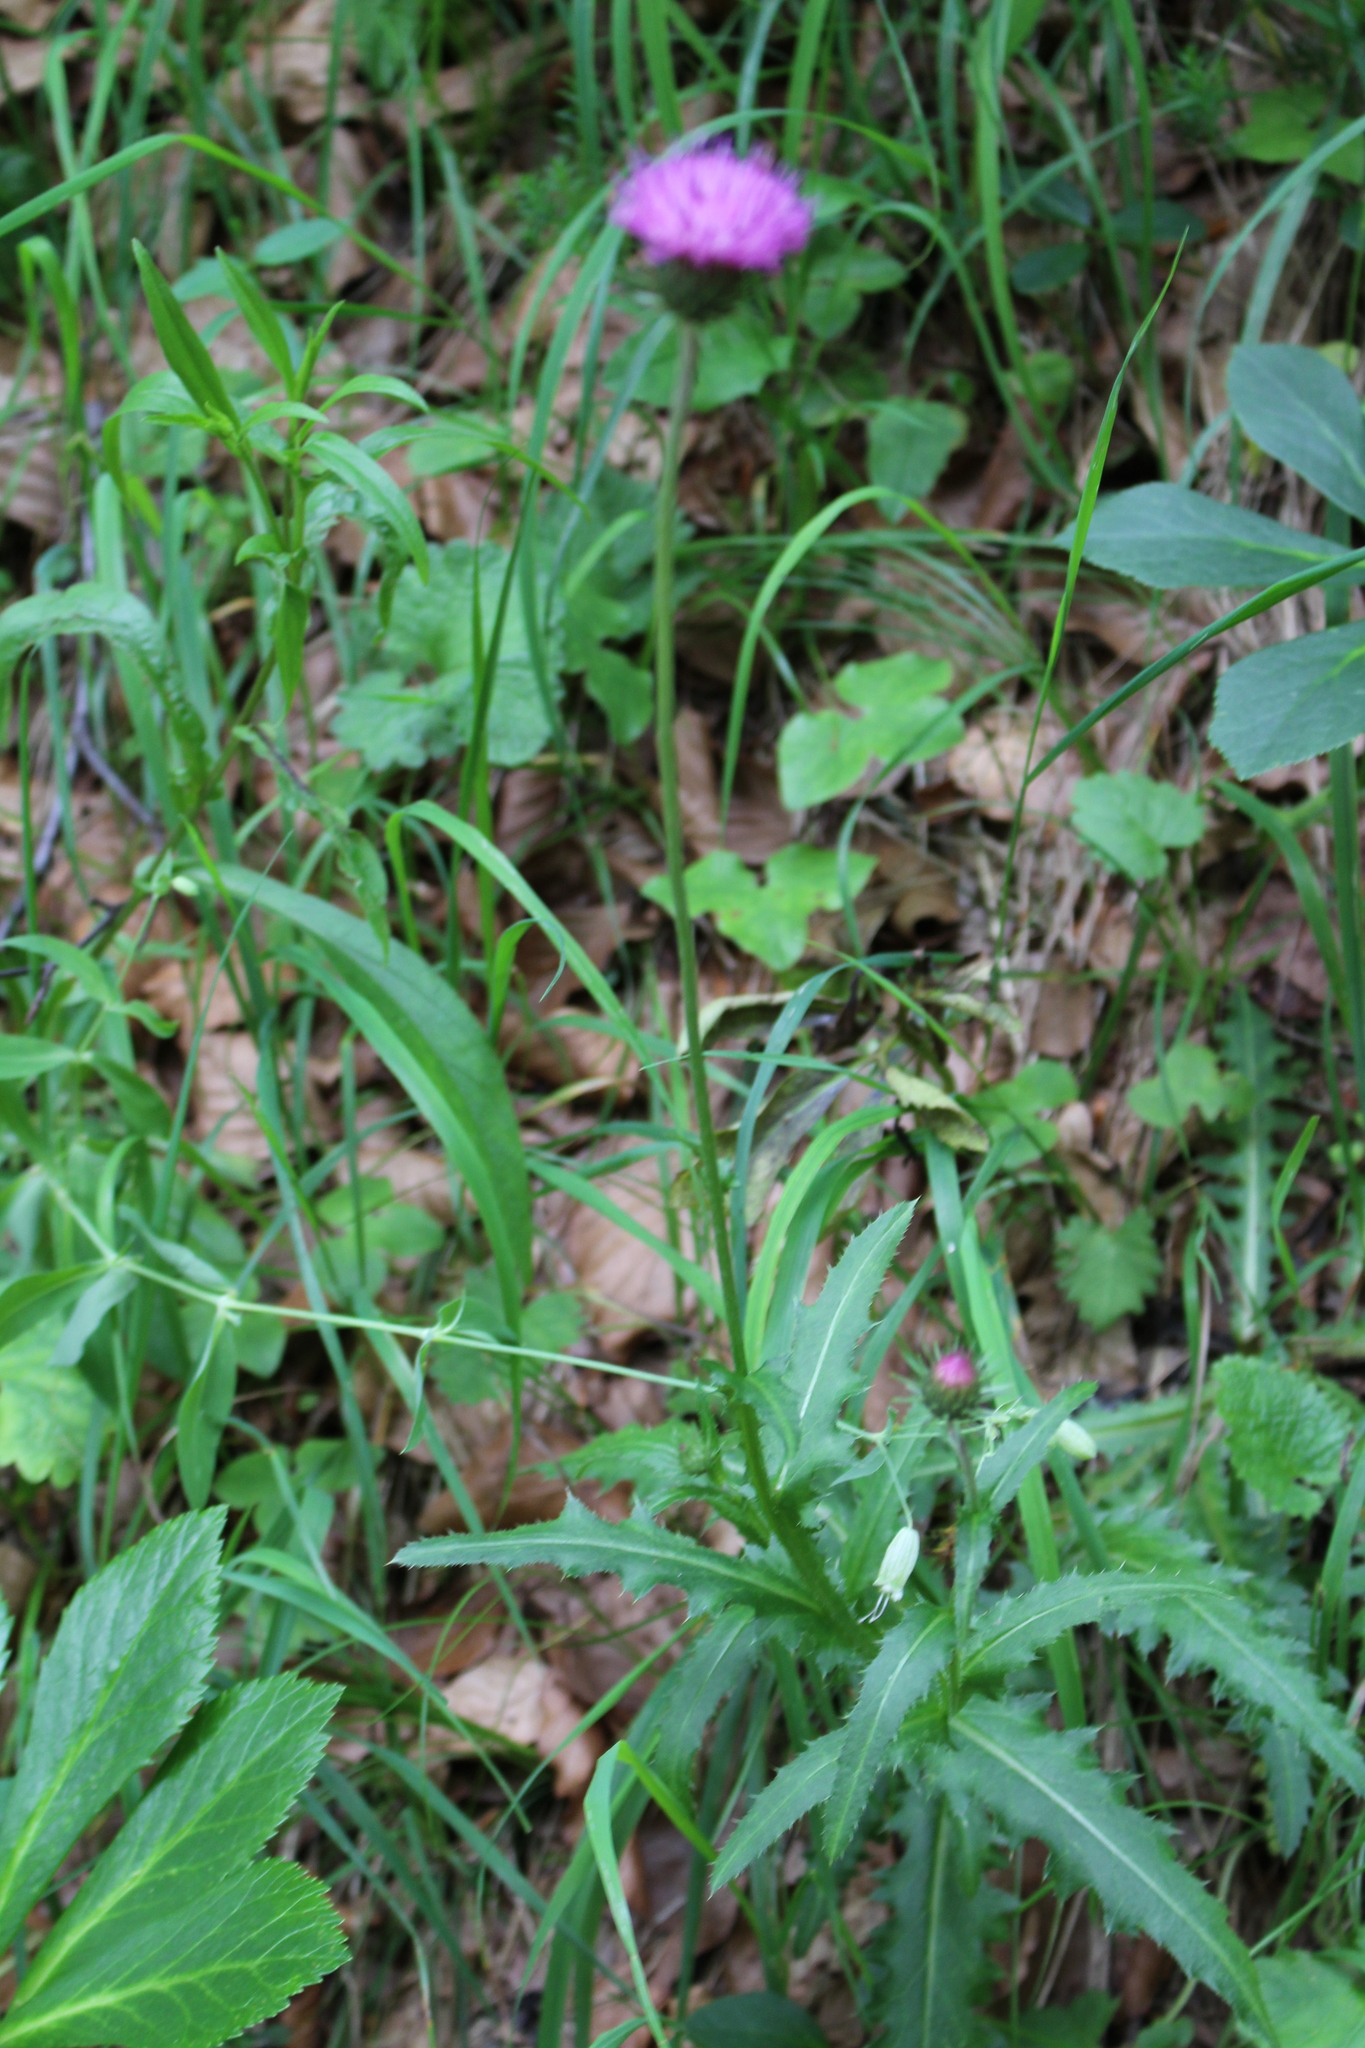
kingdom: Plantae
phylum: Tracheophyta
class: Magnoliopsida
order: Asterales
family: Asteraceae
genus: Carduus
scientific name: Carduus defloratus
